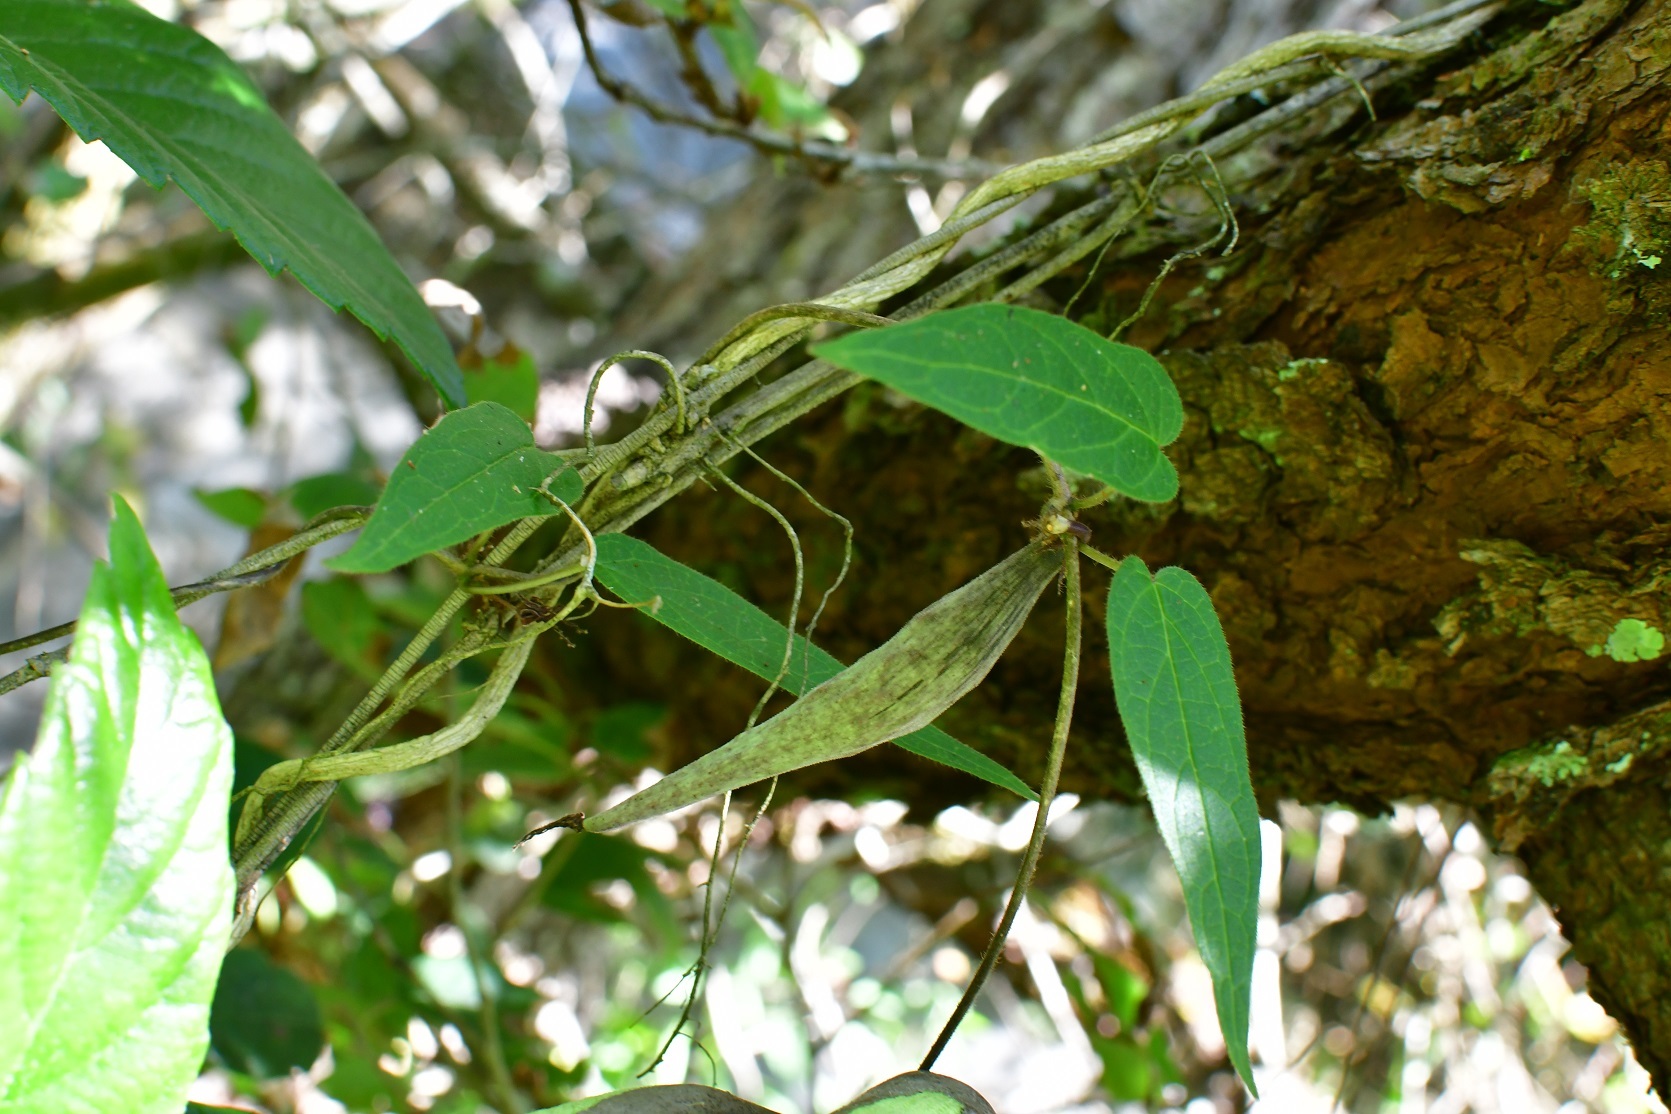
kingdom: Plantae
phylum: Tracheophyta
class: Magnoliopsida
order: Gentianales
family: Apocynaceae
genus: Matelea
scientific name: Matelea medusae
